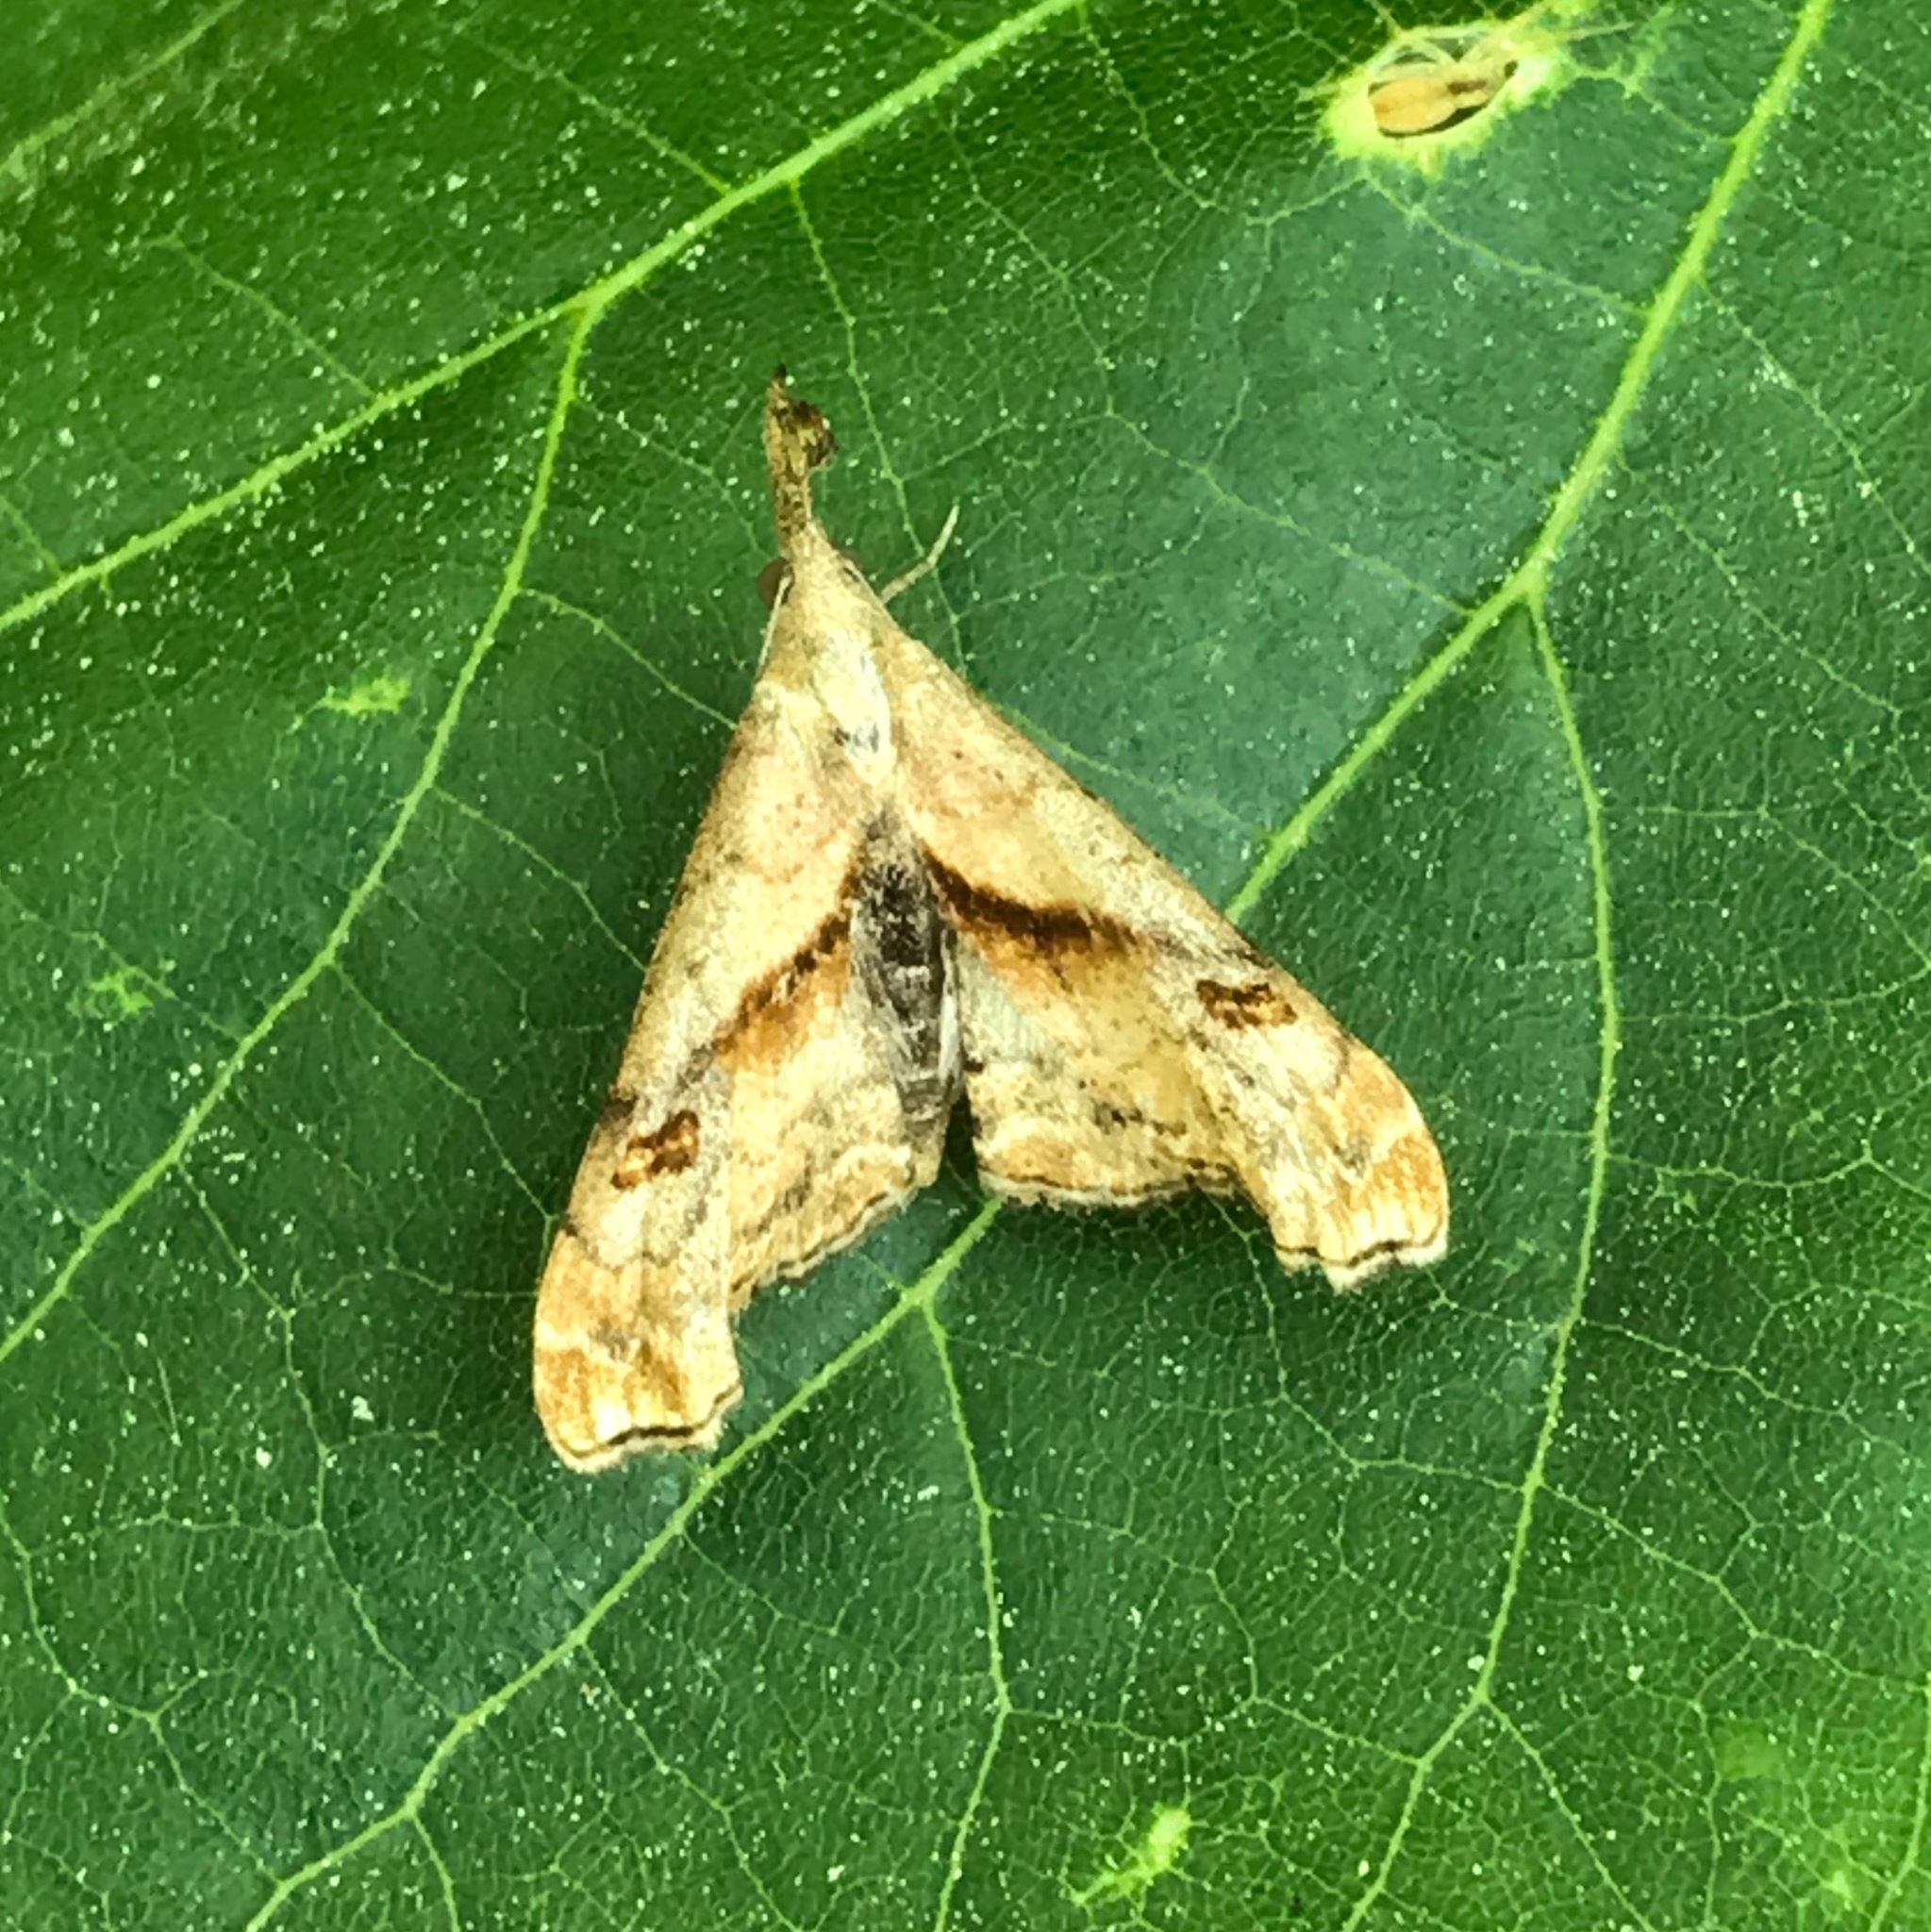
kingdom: Animalia
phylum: Arthropoda
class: Insecta
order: Lepidoptera
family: Erebidae
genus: Palthis
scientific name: Palthis angulalis
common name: Dark-spotted palthis moth
